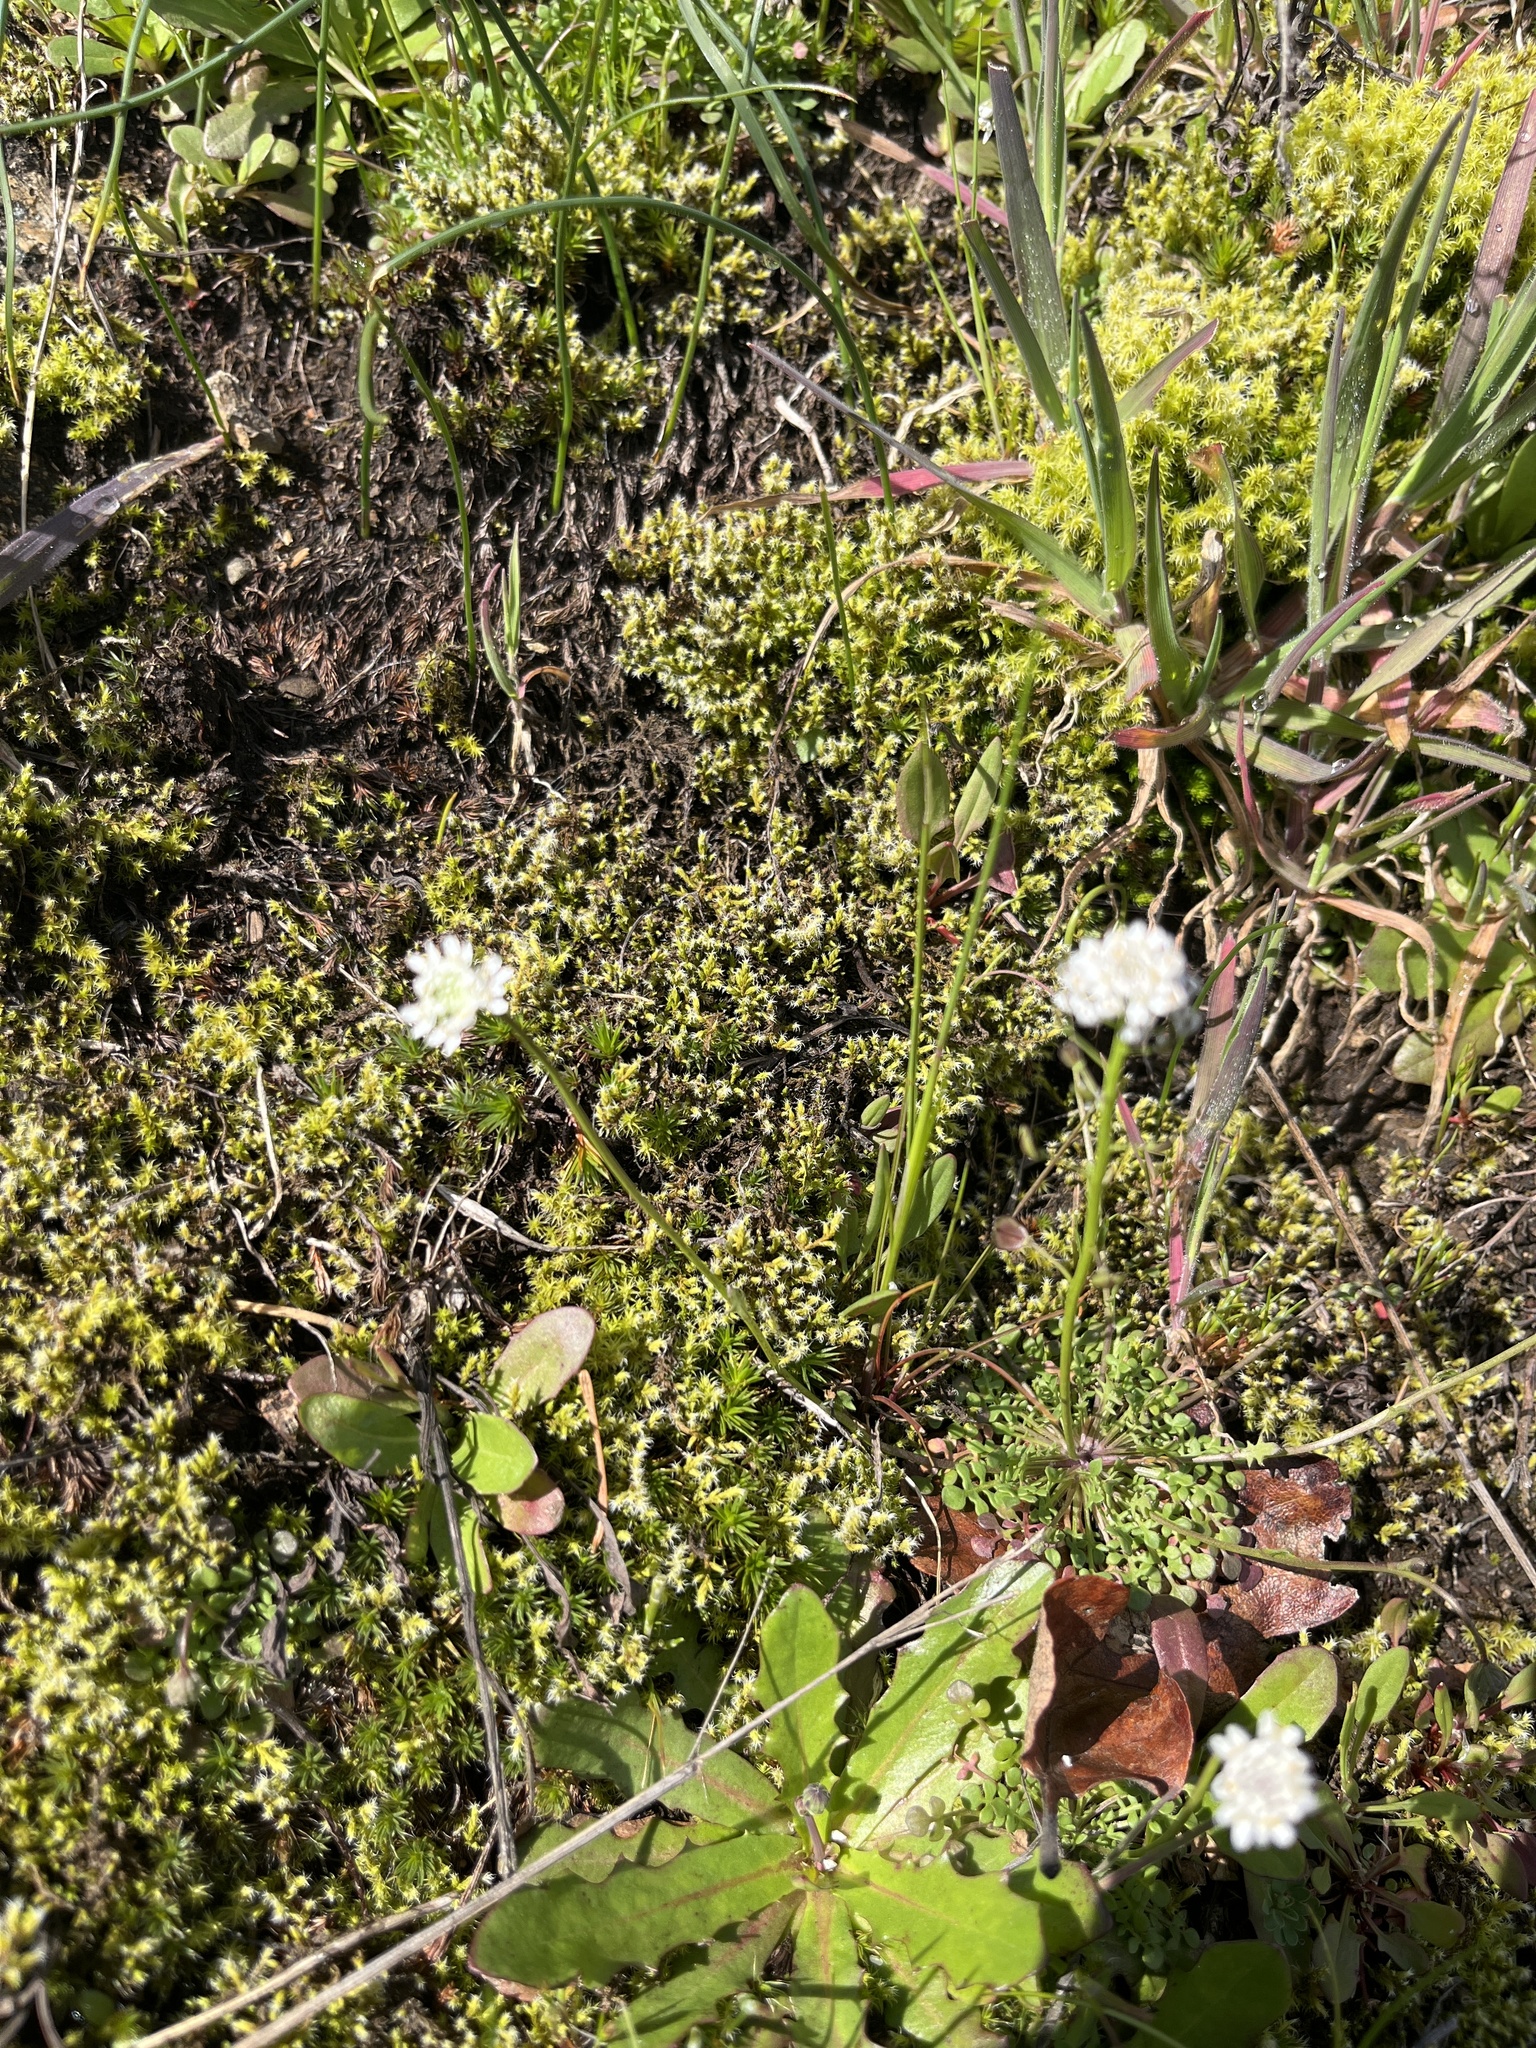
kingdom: Plantae
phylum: Tracheophyta
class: Magnoliopsida
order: Brassicales
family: Brassicaceae
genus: Teesdalia
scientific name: Teesdalia nudicaulis
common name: Shepherd's cress
